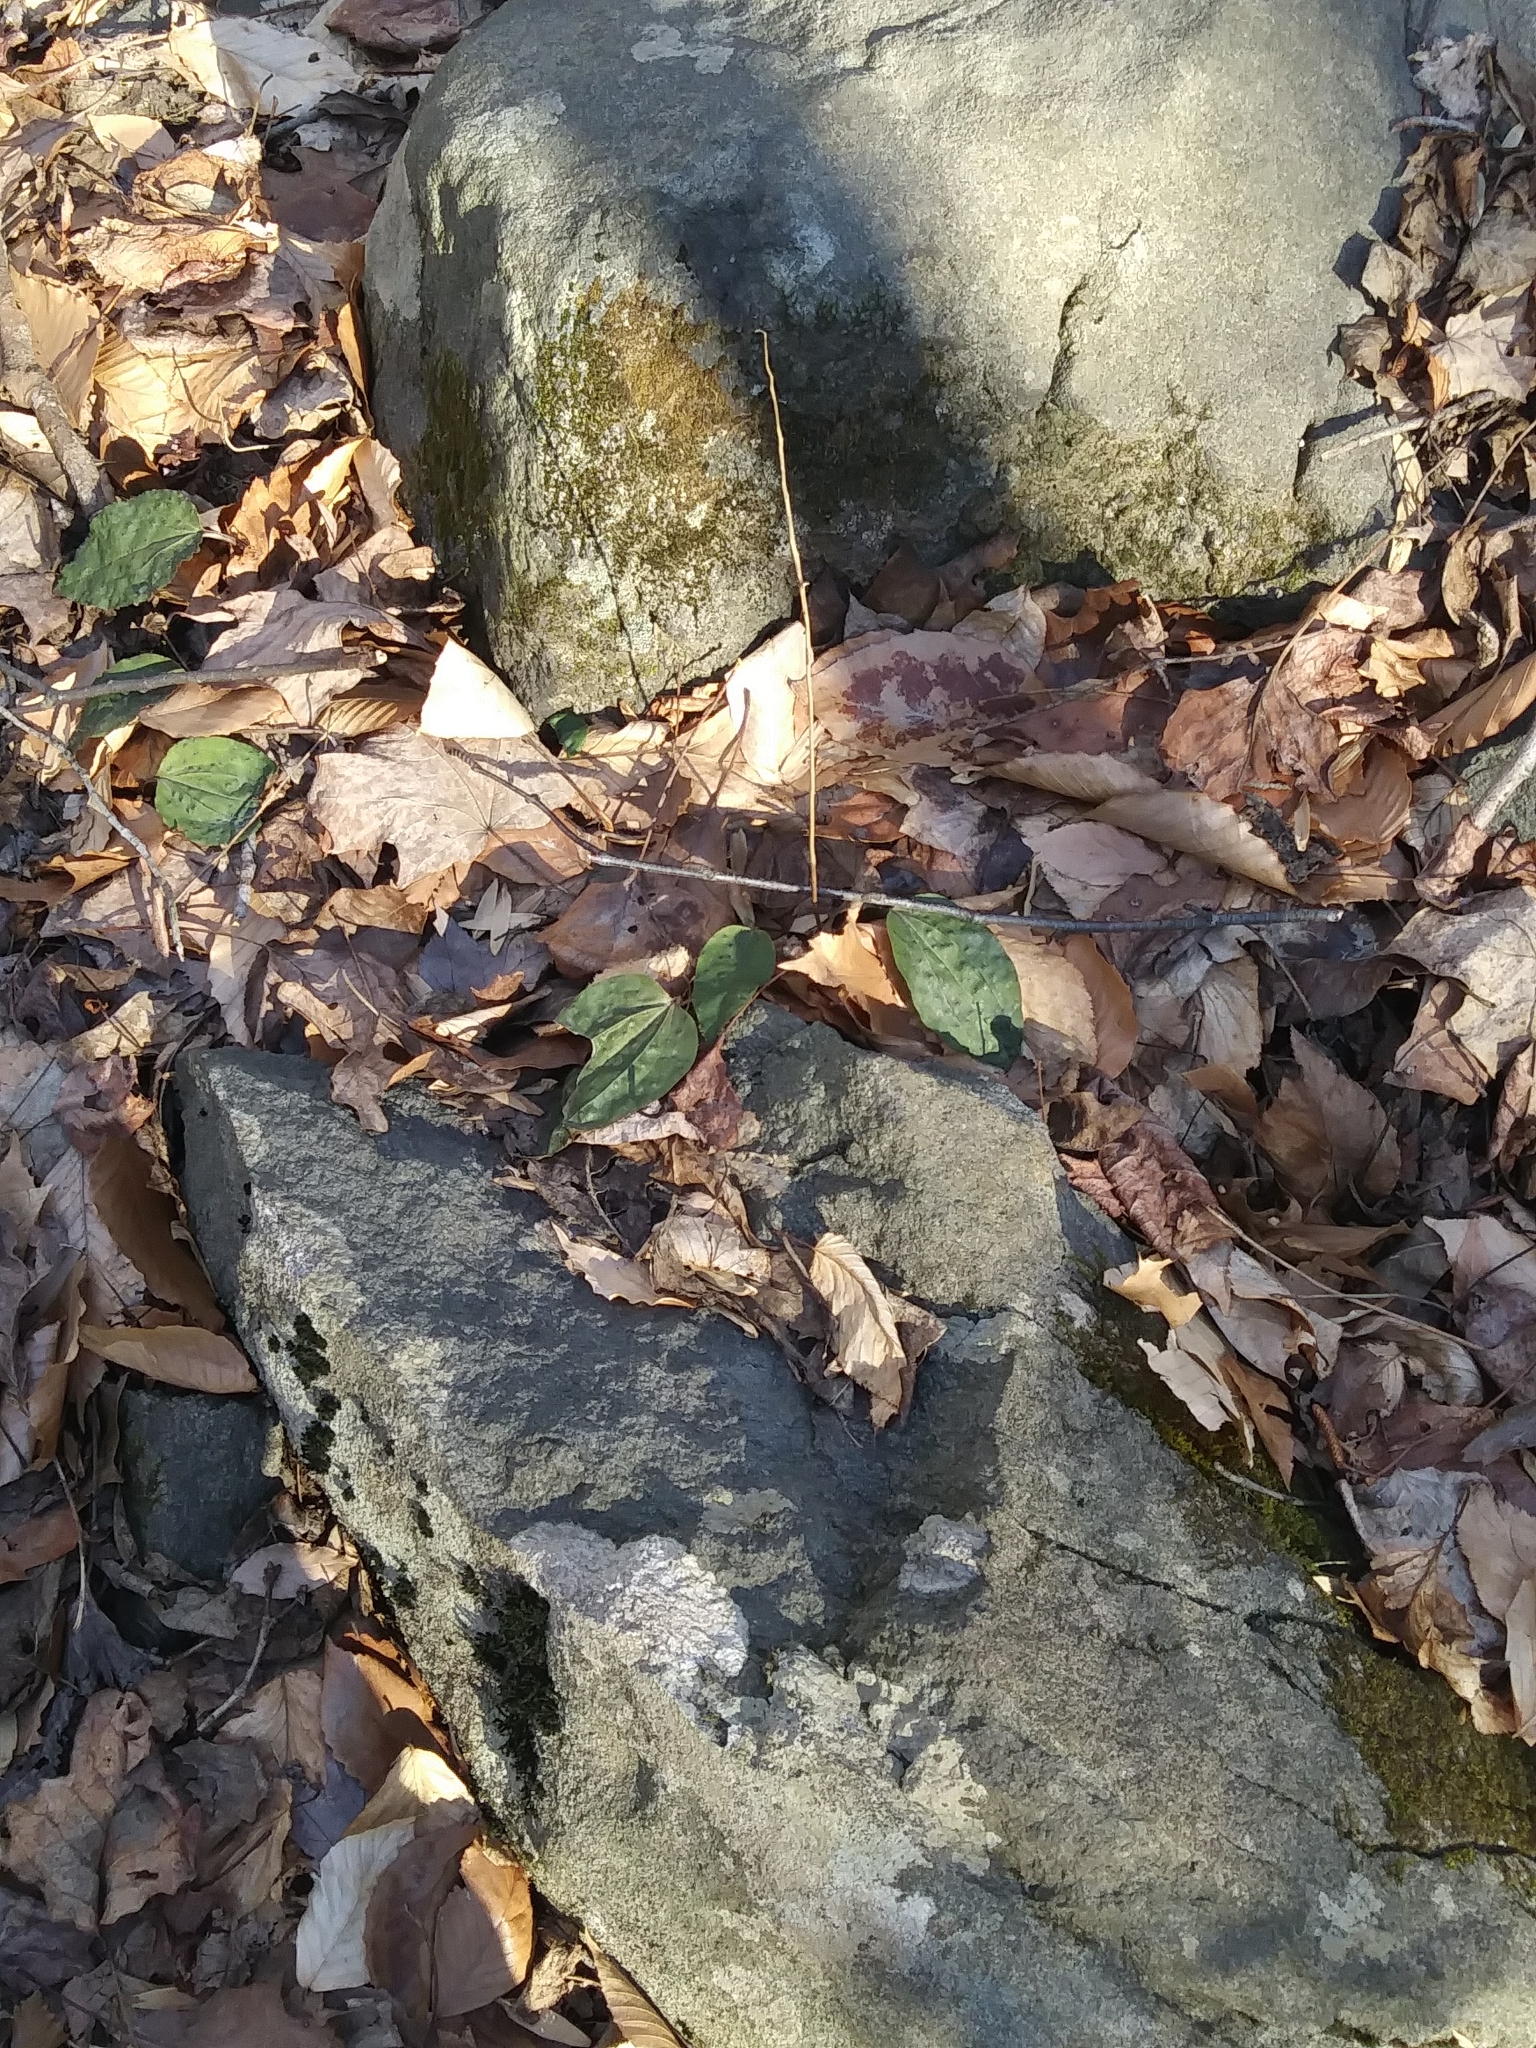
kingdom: Plantae
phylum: Tracheophyta
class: Liliopsida
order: Asparagales
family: Orchidaceae
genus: Tipularia
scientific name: Tipularia discolor
